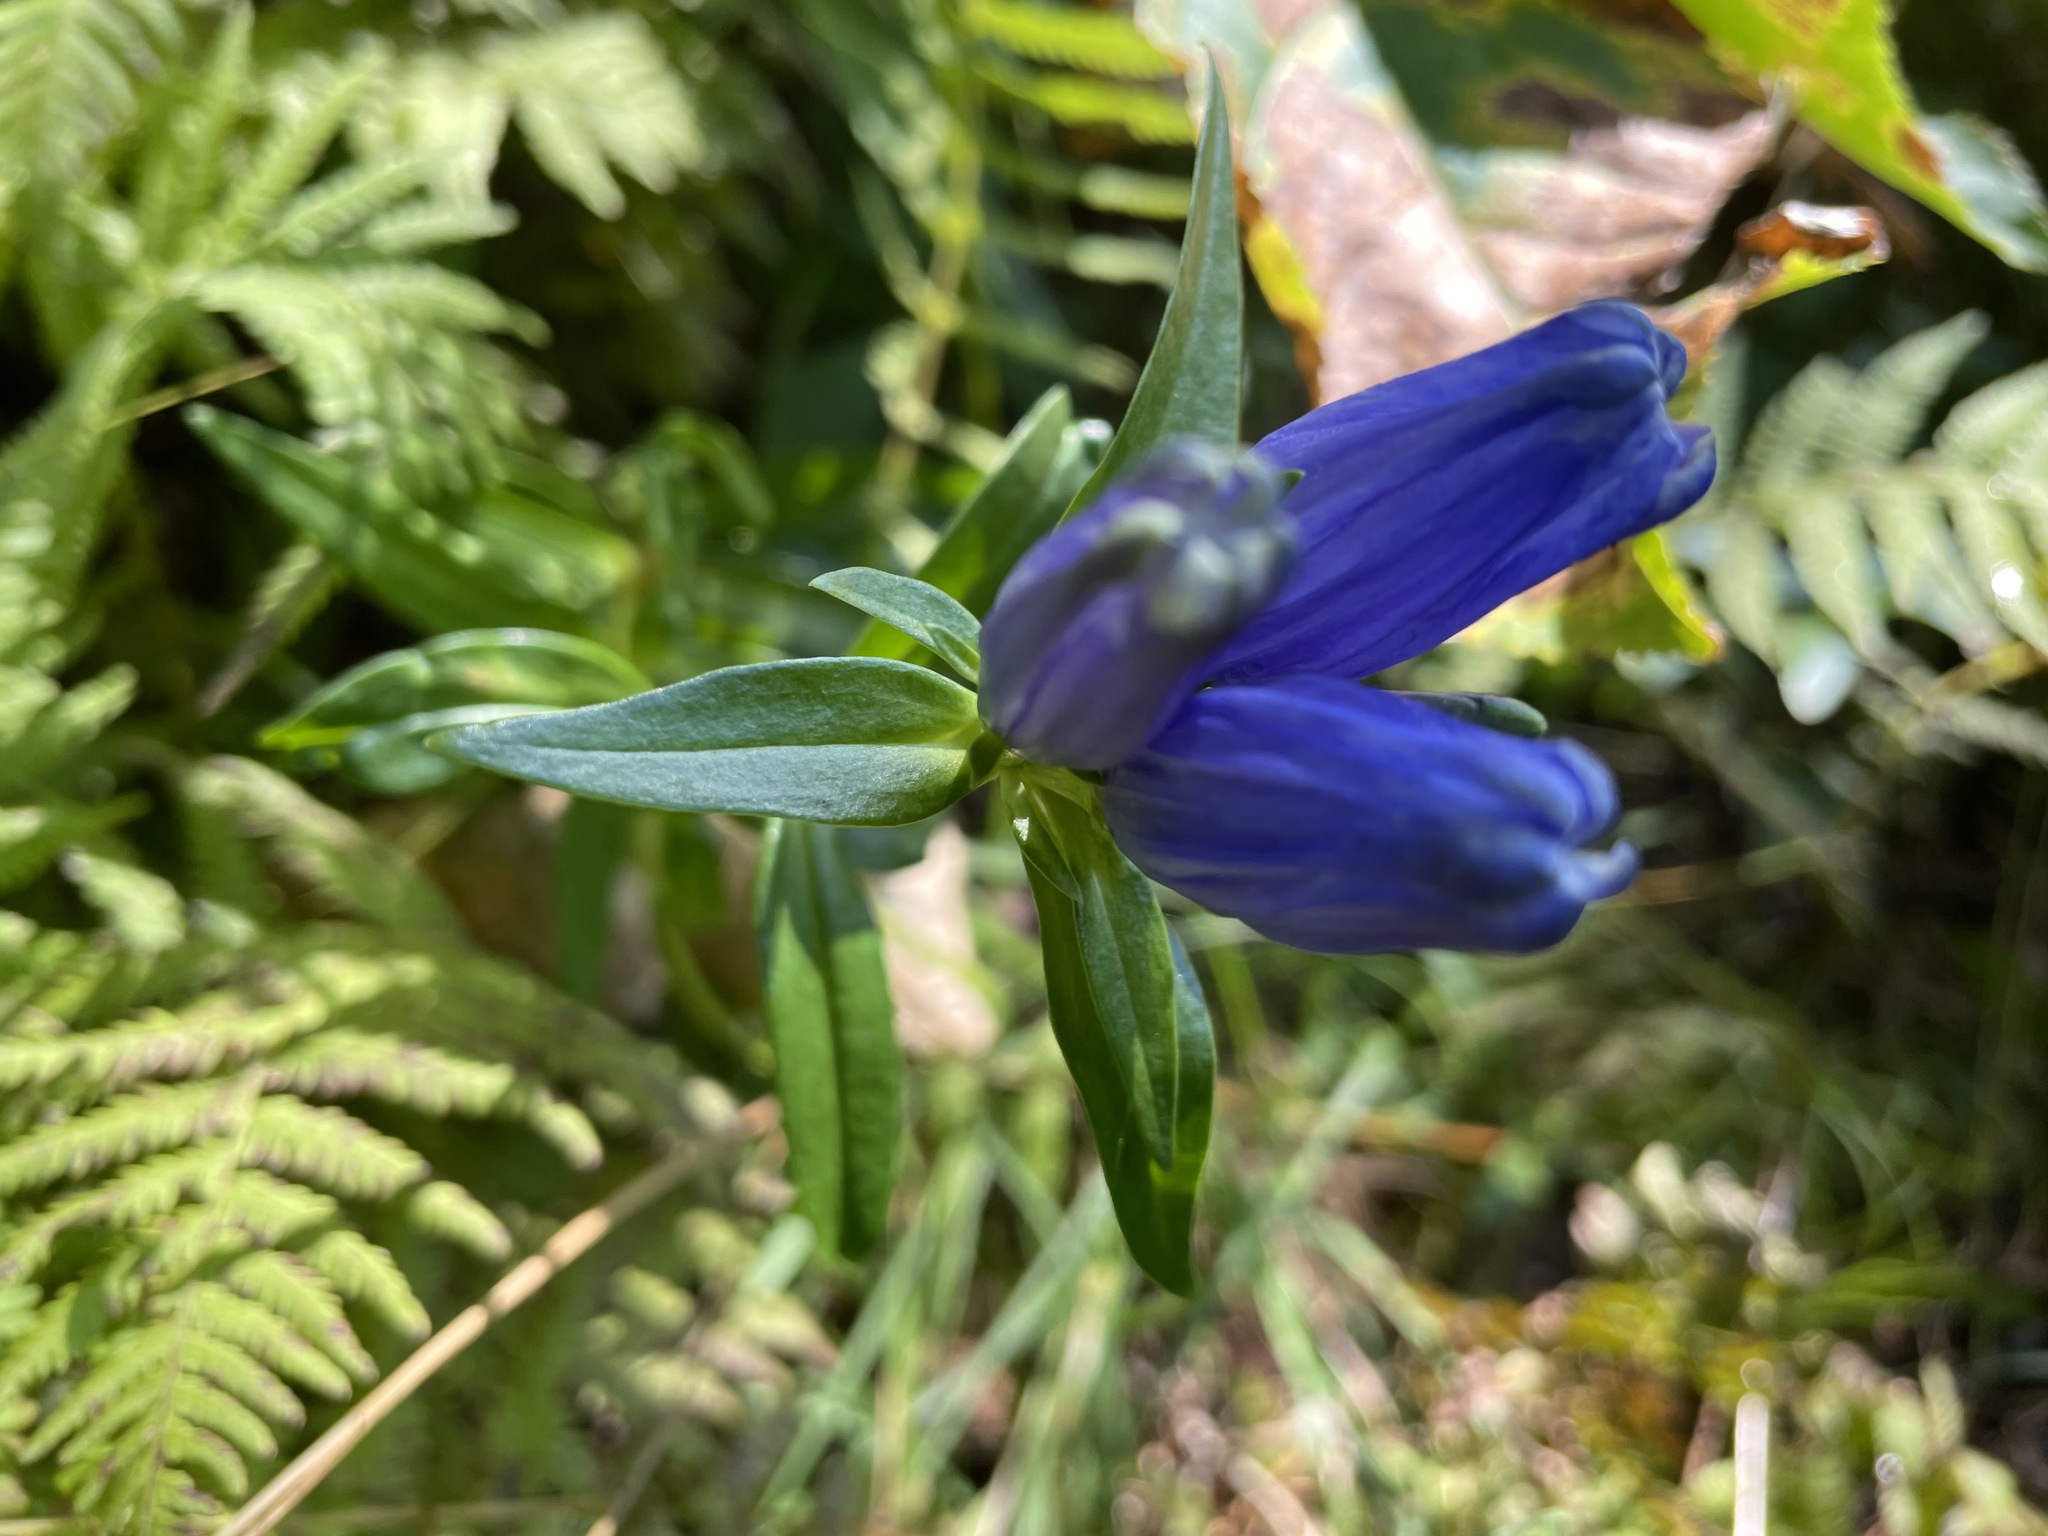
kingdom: Plantae
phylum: Tracheophyta
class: Magnoliopsida
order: Gentianales
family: Gentianaceae
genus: Gentiana
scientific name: Gentiana linearis
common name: Bastard gentian
